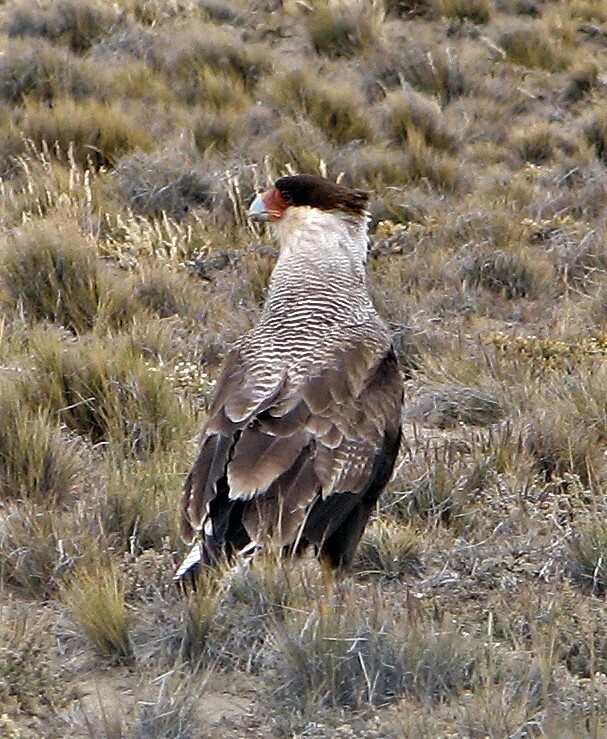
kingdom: Animalia
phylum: Chordata
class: Aves
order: Falconiformes
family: Falconidae
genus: Caracara
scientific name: Caracara plancus
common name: Southern caracara
